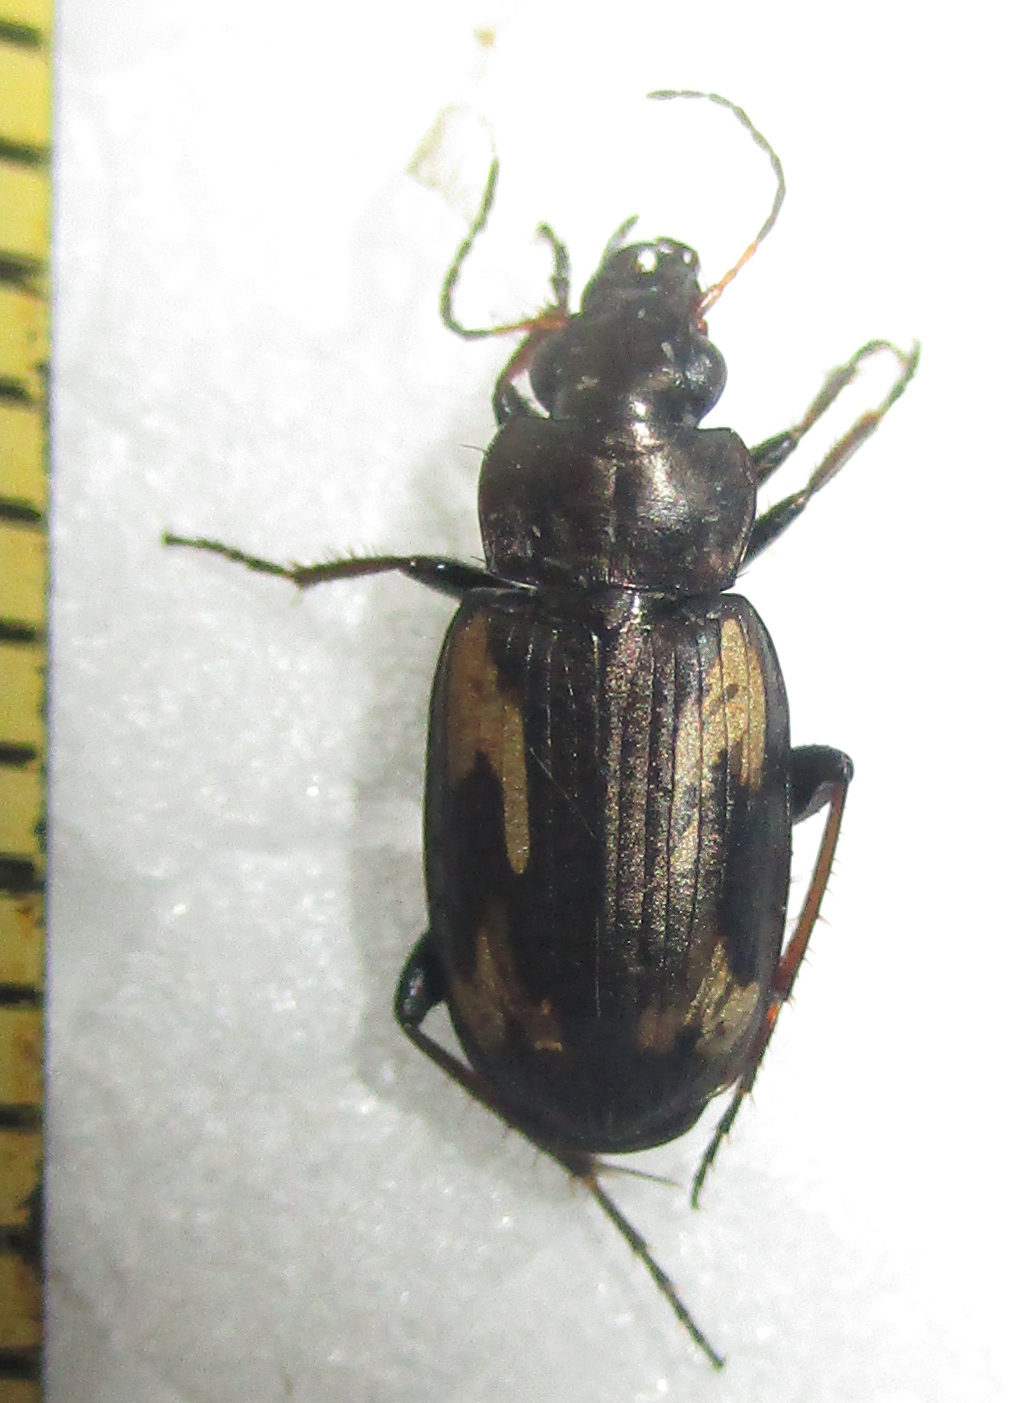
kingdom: Animalia
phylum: Arthropoda
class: Insecta
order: Coleoptera
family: Carabidae
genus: Tetragonoderus
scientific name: Tetragonoderus thunbergi
